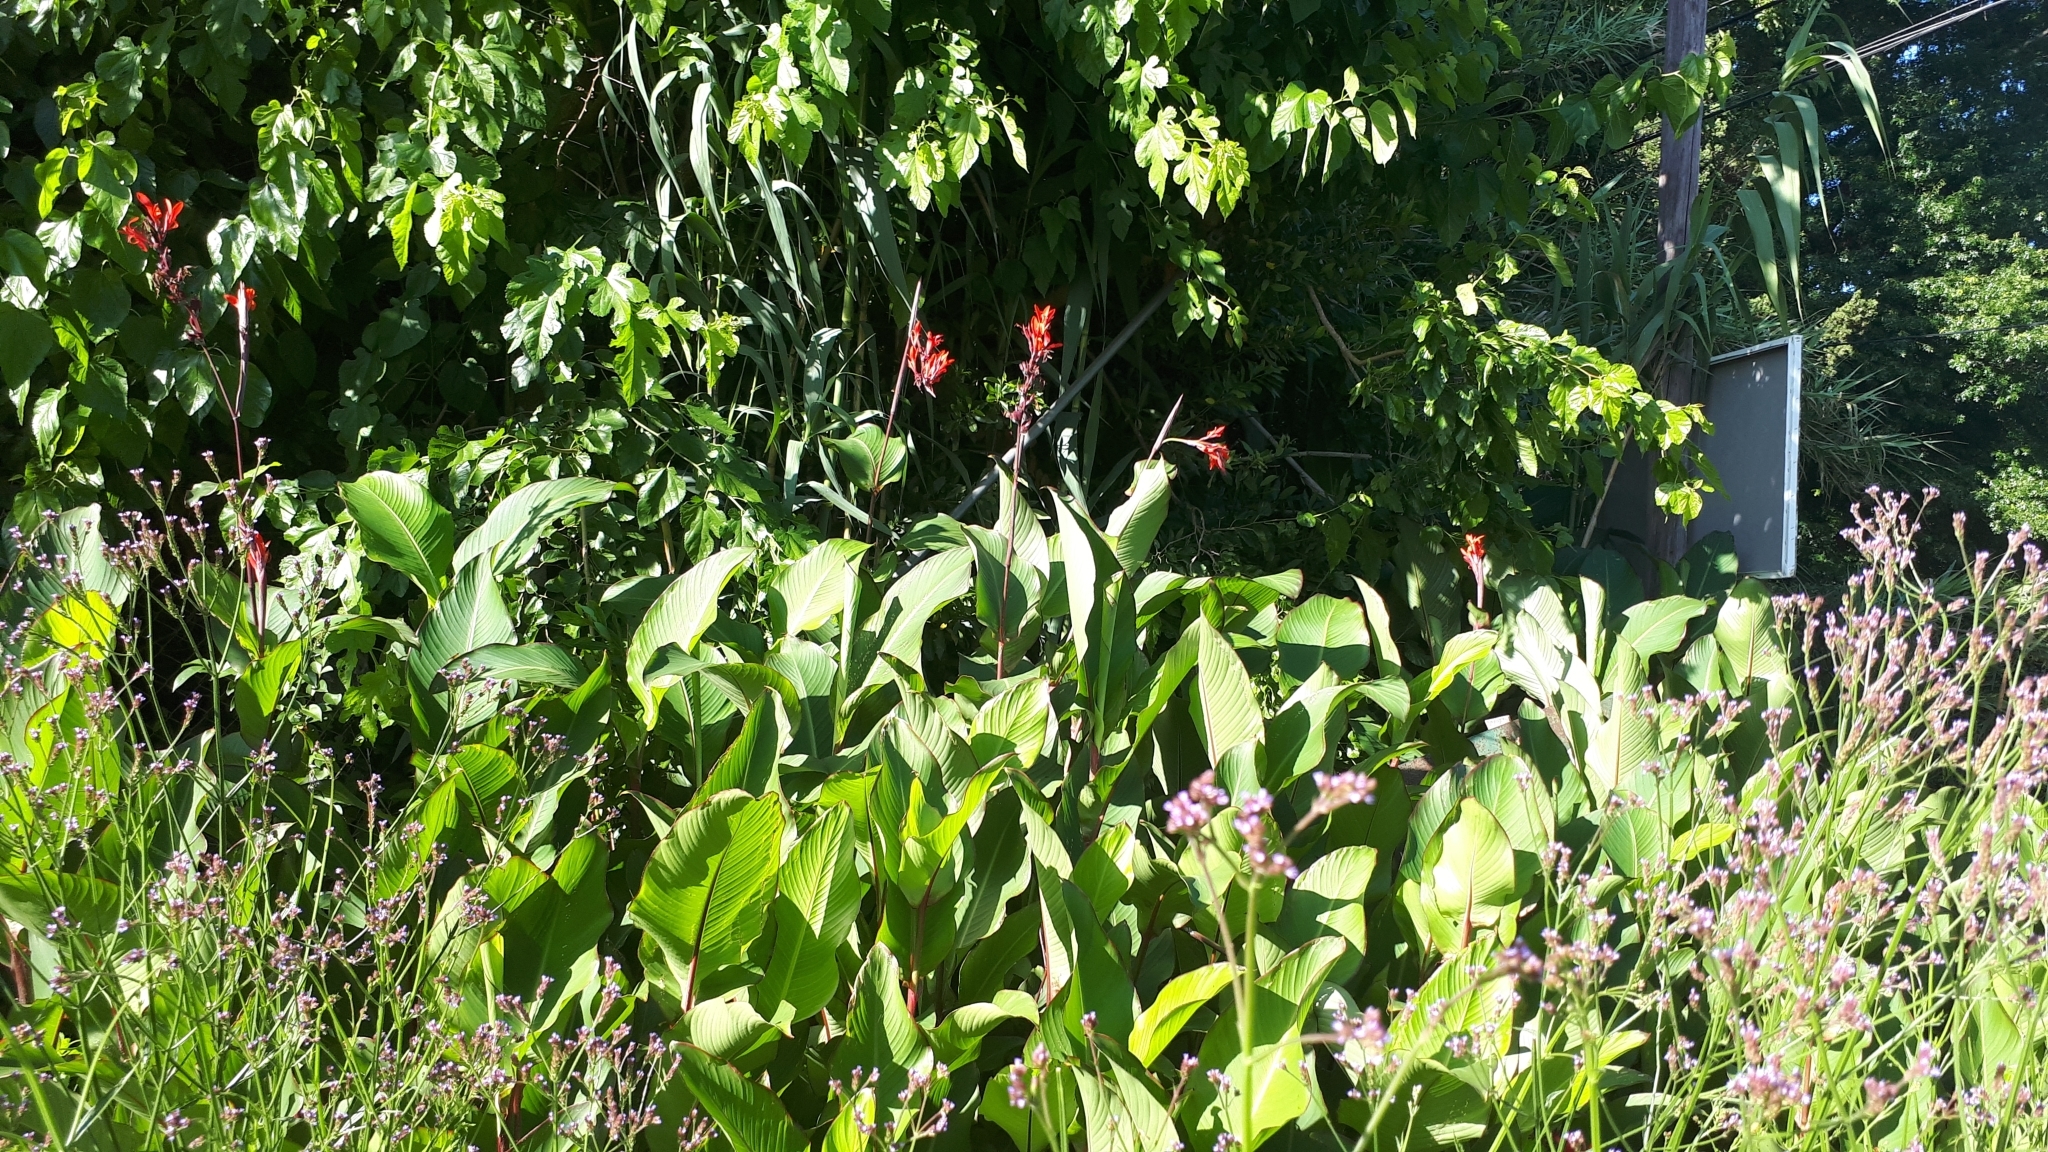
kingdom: Plantae
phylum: Tracheophyta
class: Liliopsida
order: Zingiberales
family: Cannaceae
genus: Canna
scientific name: Canna indica
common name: Indian shot
